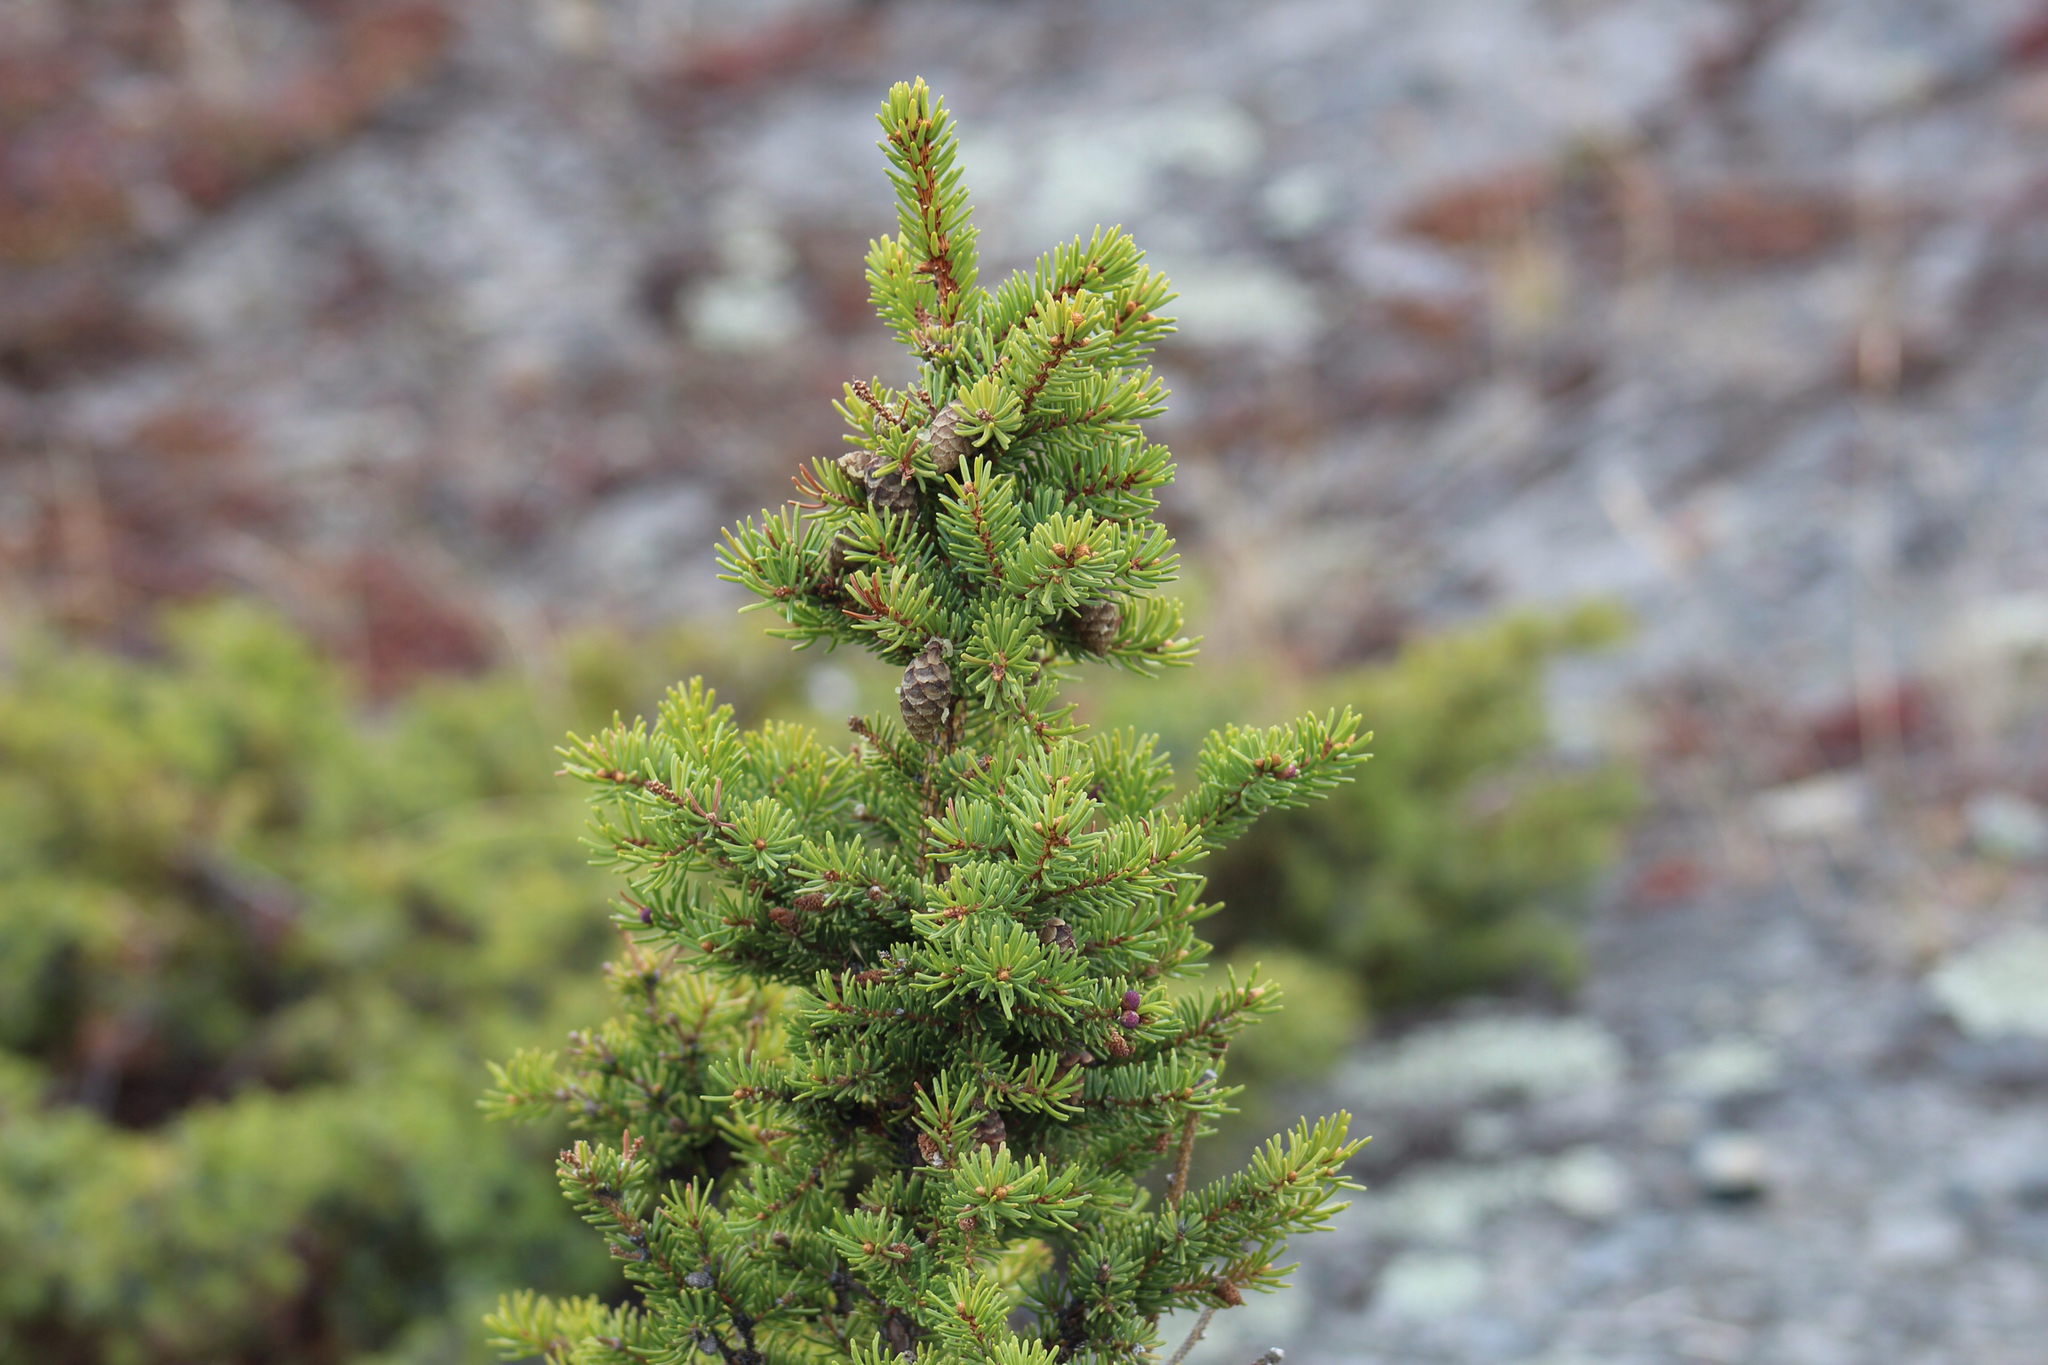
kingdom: Plantae
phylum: Tracheophyta
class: Pinopsida
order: Pinales
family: Pinaceae
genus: Picea
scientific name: Picea mariana
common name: Black spruce
